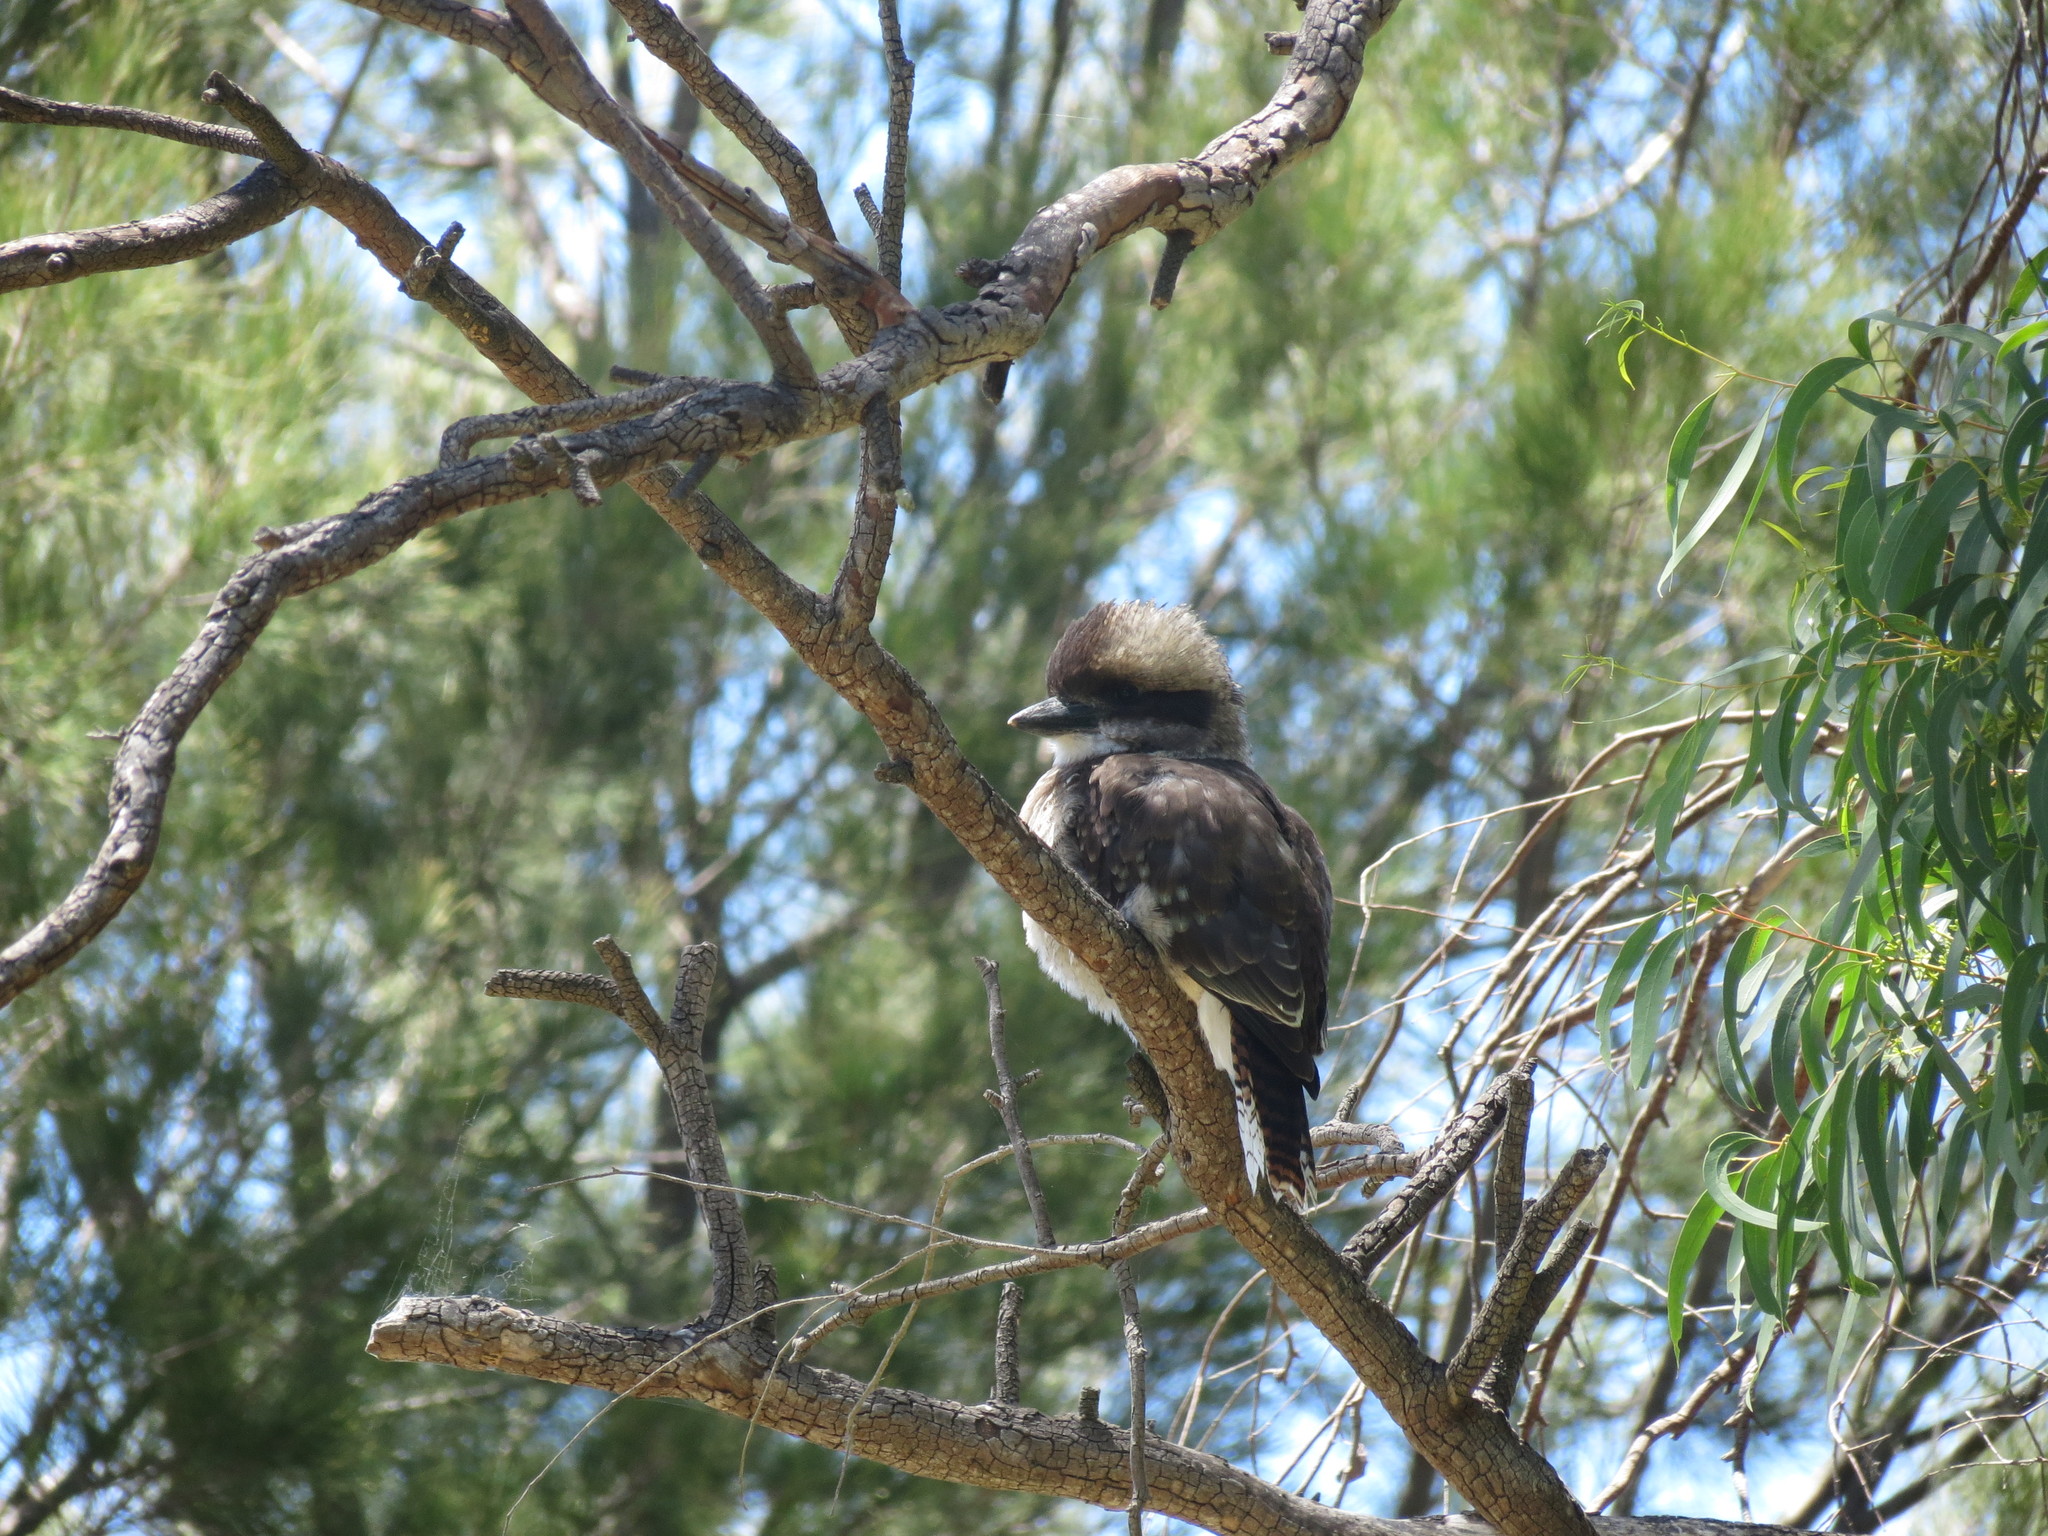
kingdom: Animalia
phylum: Chordata
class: Aves
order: Coraciiformes
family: Alcedinidae
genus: Dacelo
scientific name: Dacelo novaeguineae
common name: Laughing kookaburra
